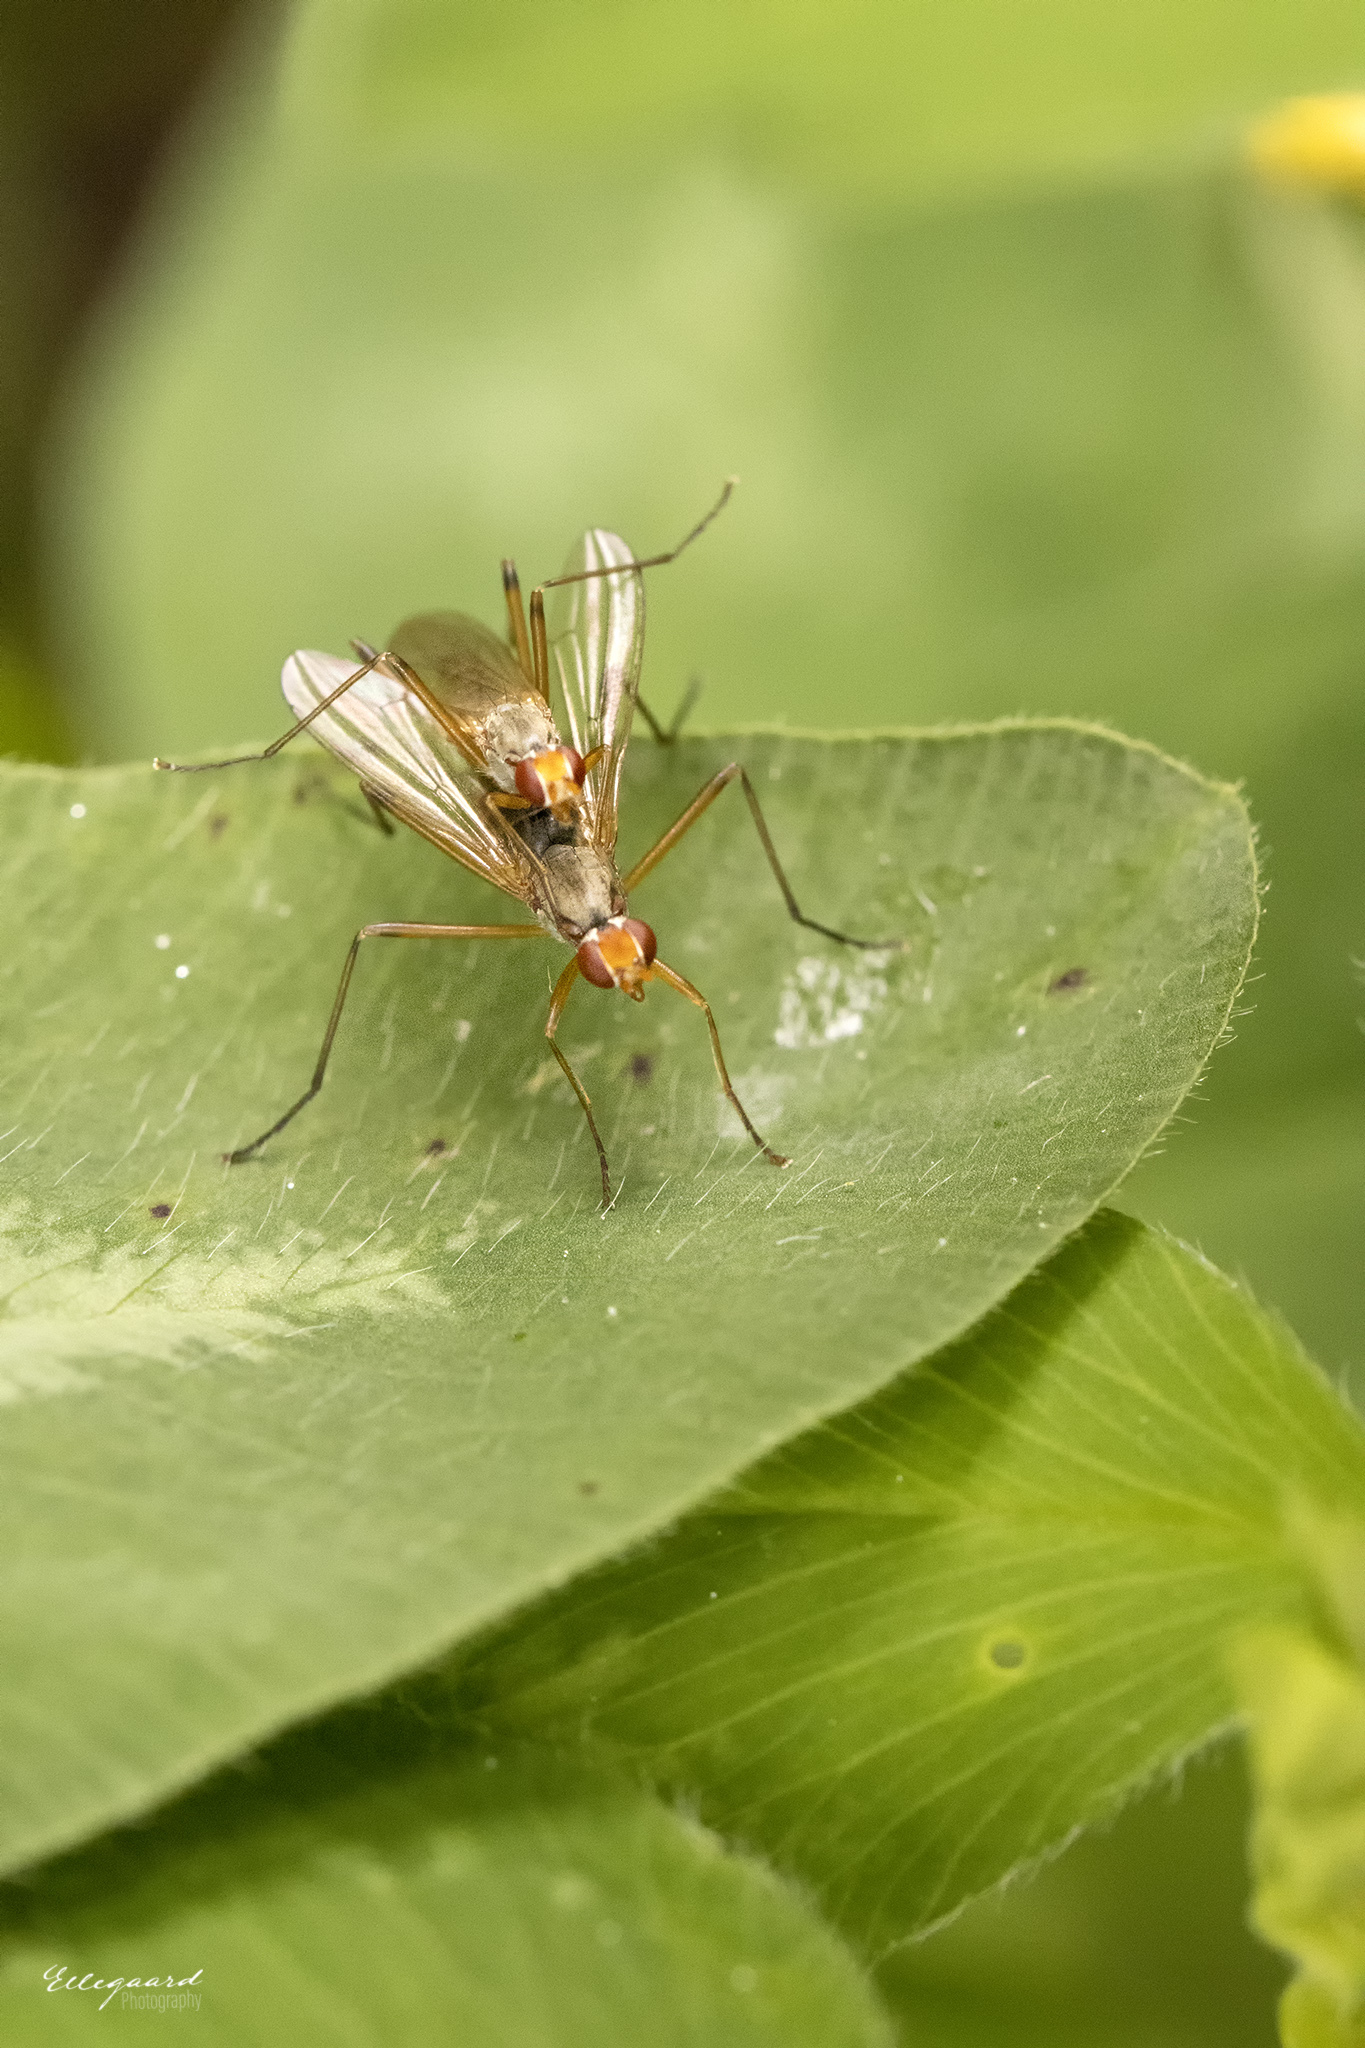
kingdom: Animalia
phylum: Arthropoda
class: Insecta
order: Diptera
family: Micropezidae
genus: Calobata
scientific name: Calobata petronella
